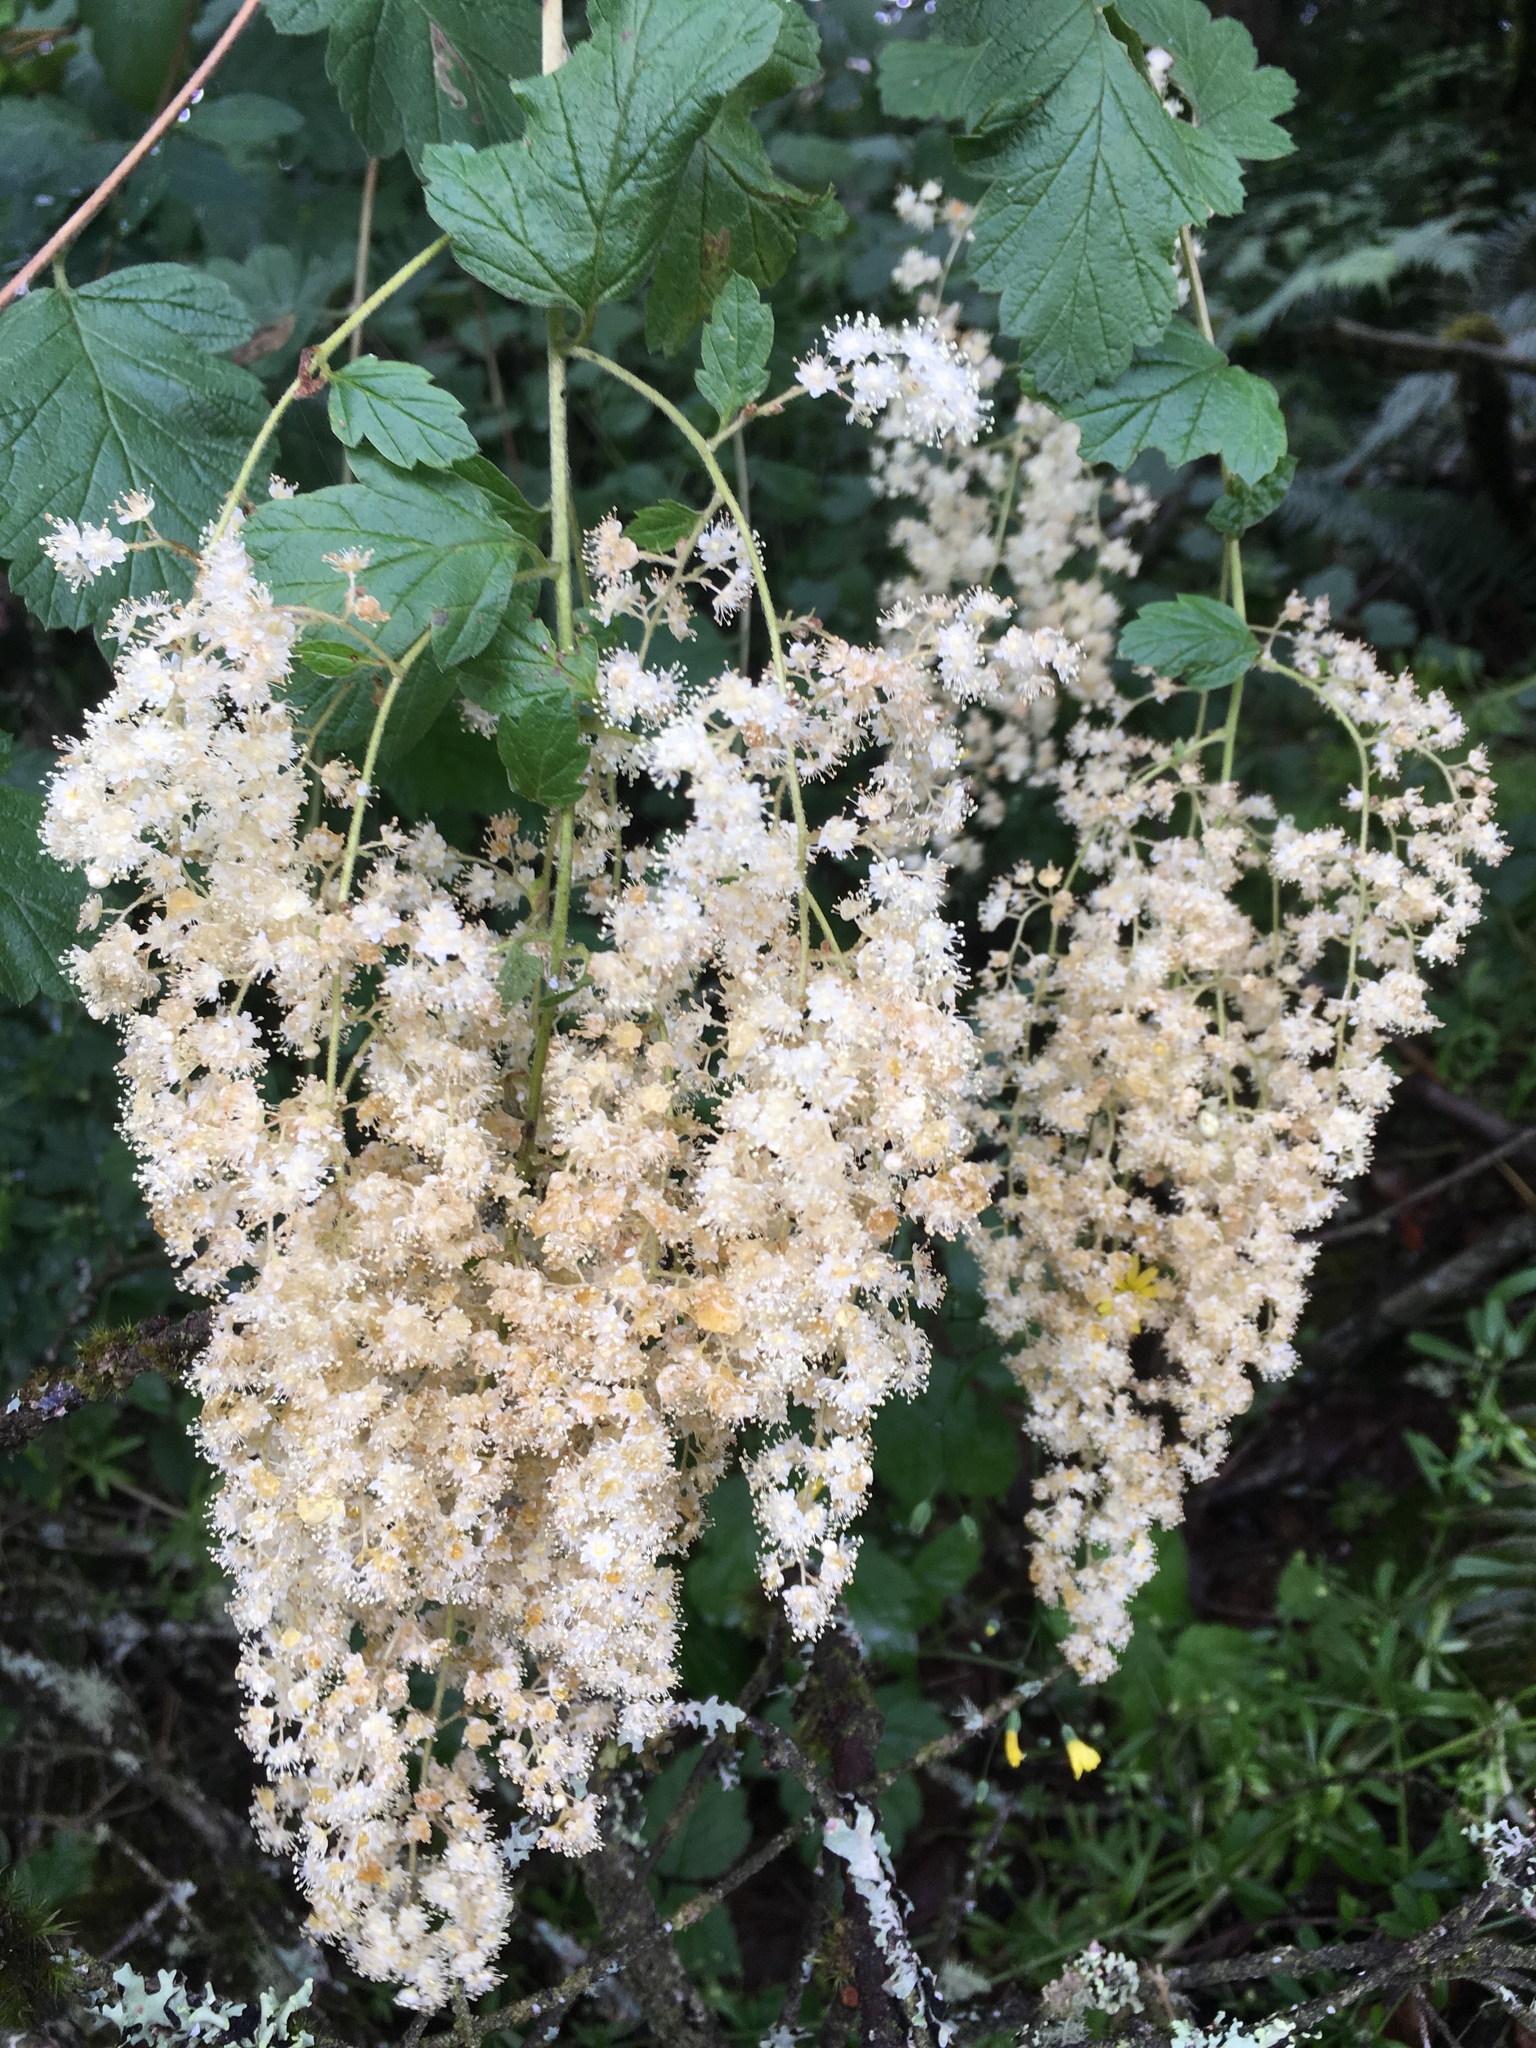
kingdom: Plantae
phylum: Tracheophyta
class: Magnoliopsida
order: Rosales
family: Rosaceae
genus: Holodiscus
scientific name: Holodiscus discolor
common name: Oceanspray
